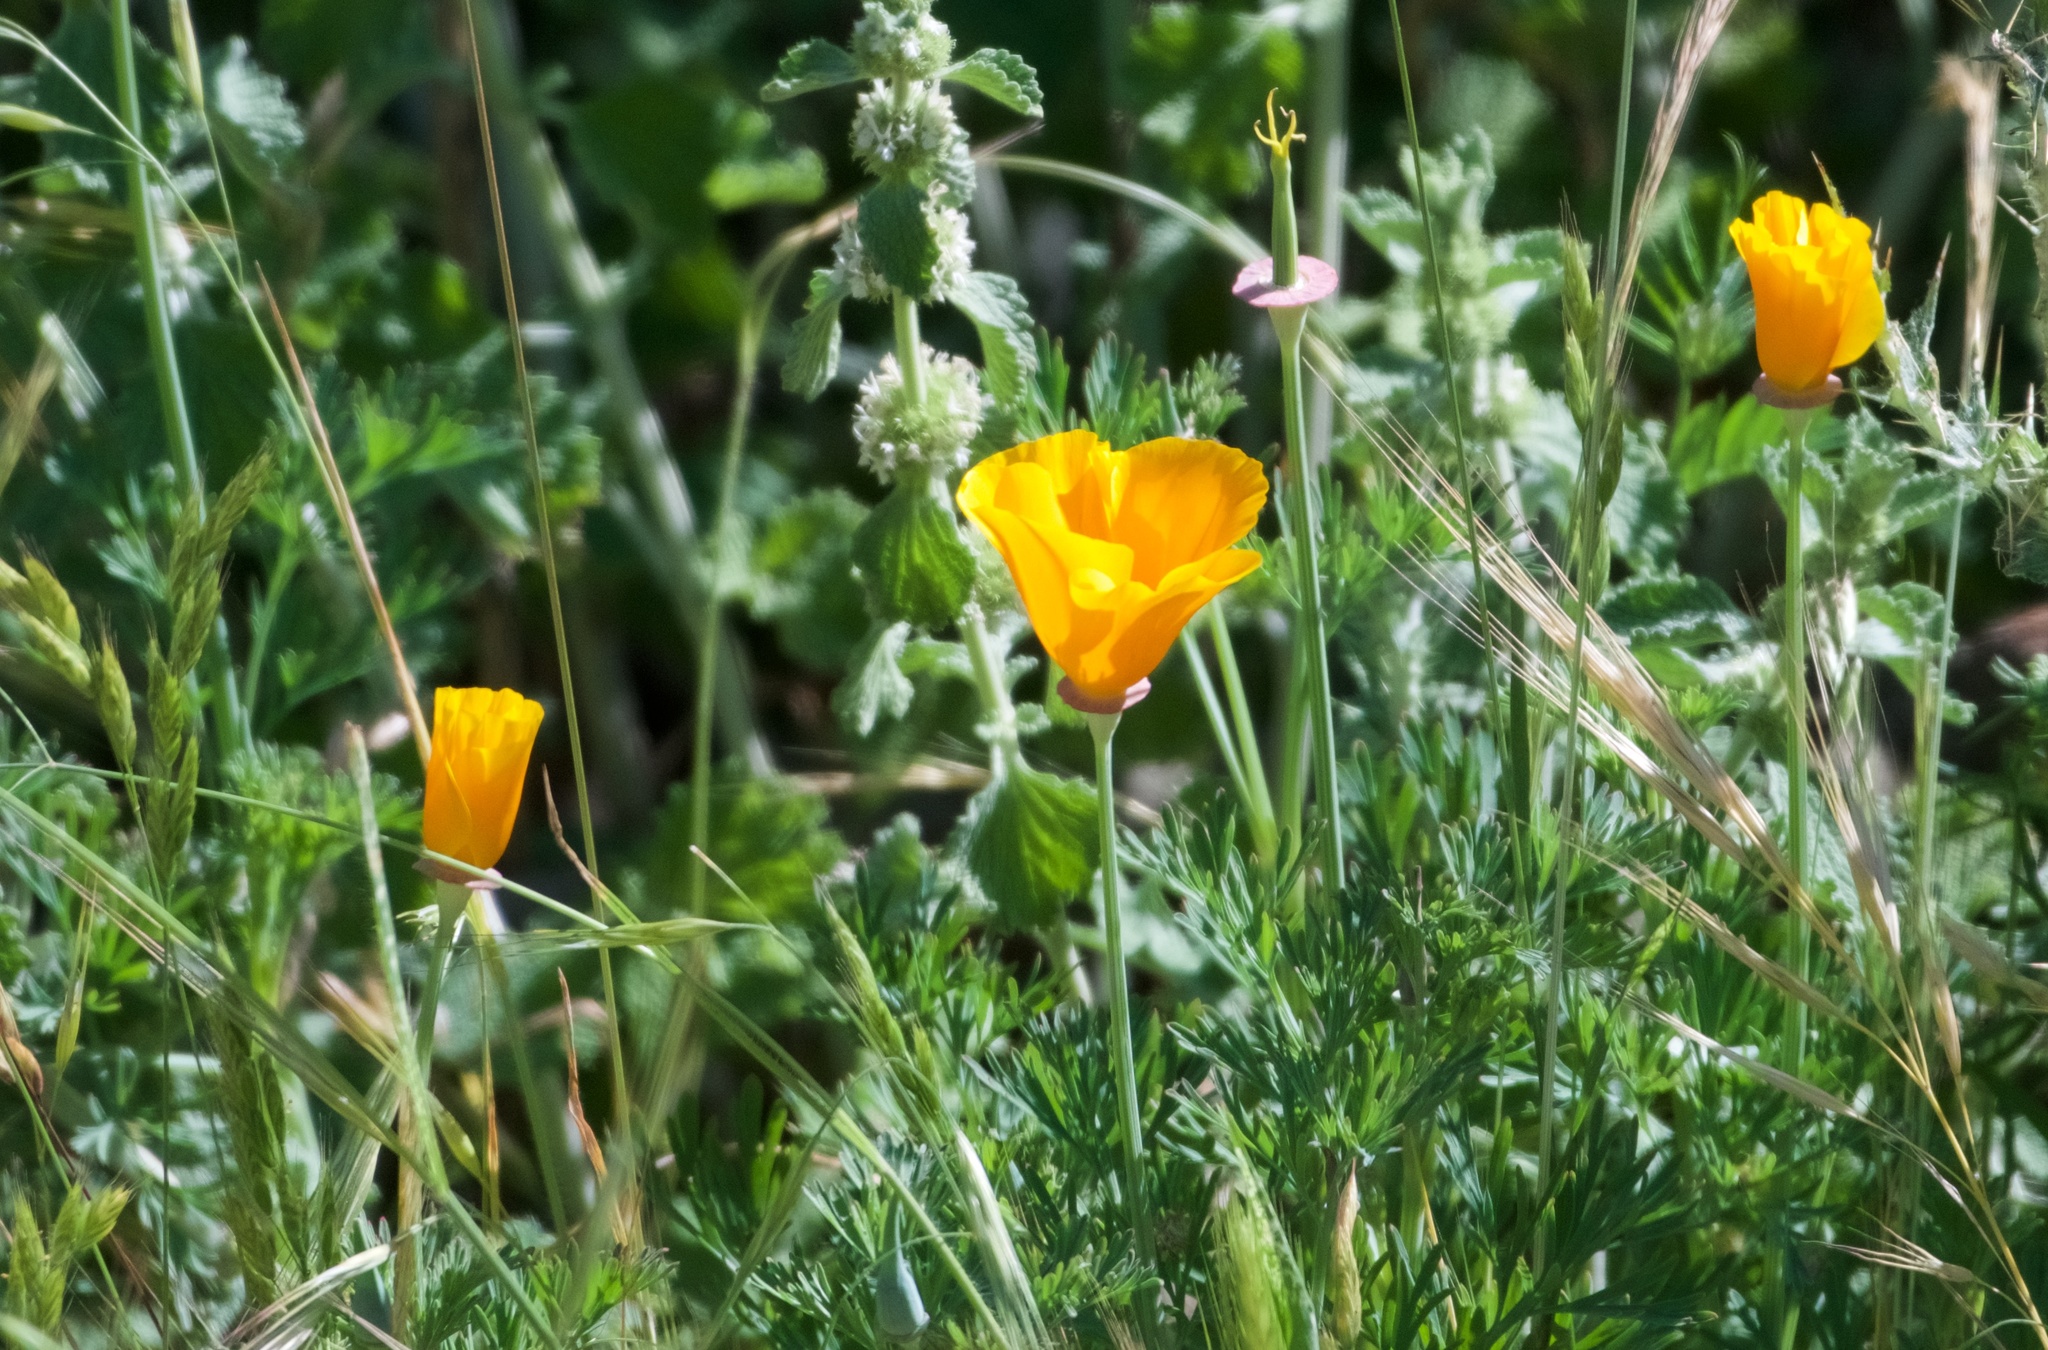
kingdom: Plantae
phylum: Tracheophyta
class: Magnoliopsida
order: Ranunculales
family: Papaveraceae
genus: Eschscholzia
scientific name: Eschscholzia californica
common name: California poppy
